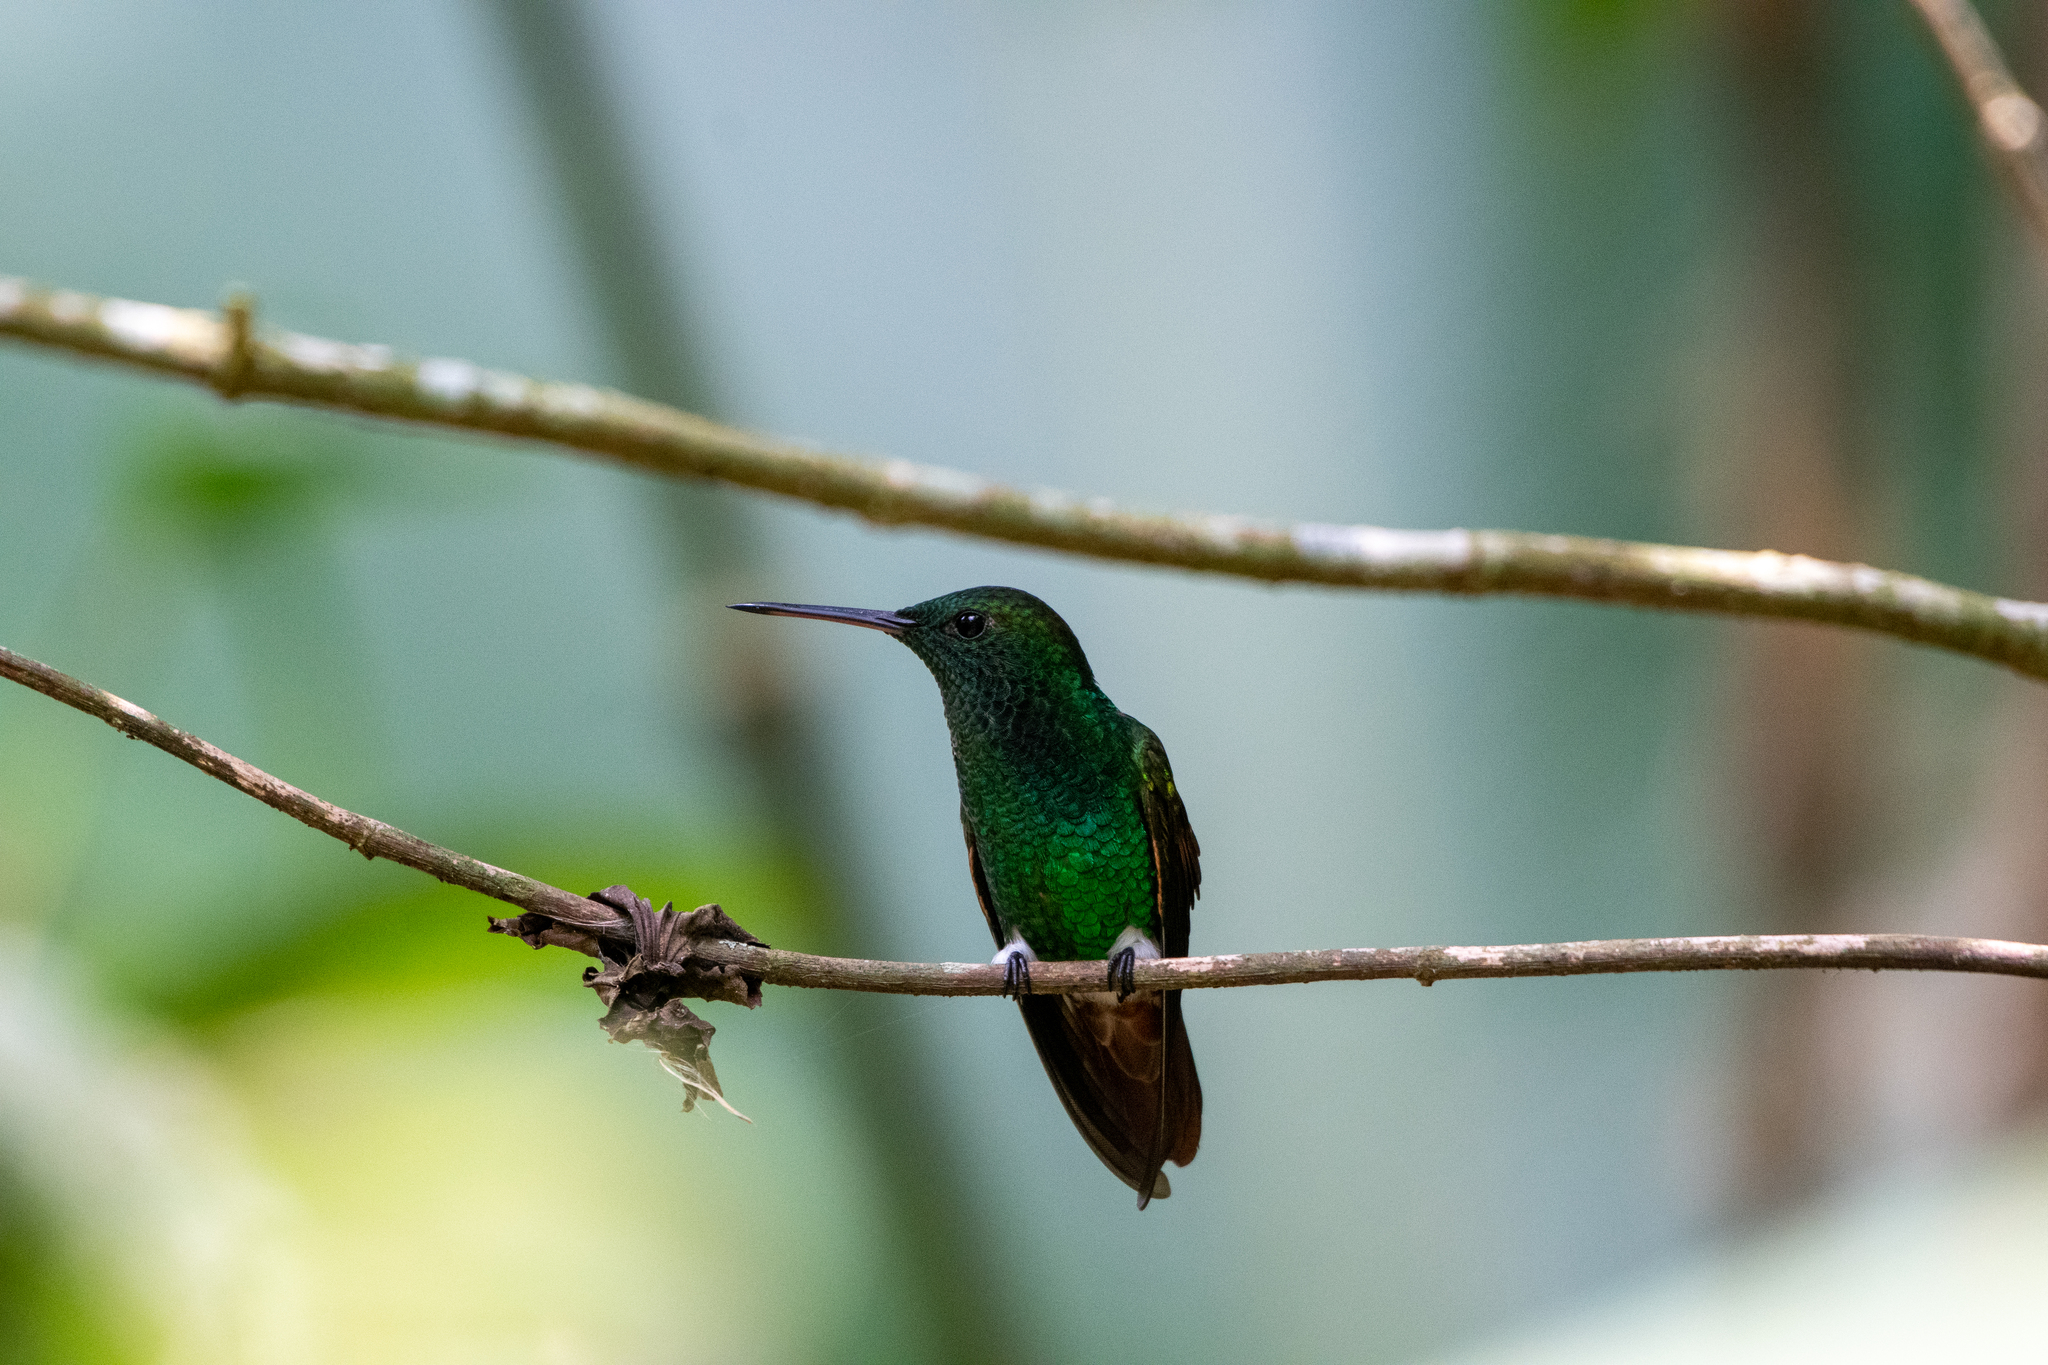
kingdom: Animalia
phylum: Chordata
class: Aves
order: Apodiformes
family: Trochilidae
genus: Saucerottia
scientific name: Saucerottia beryllina
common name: Berylline hummingbird
